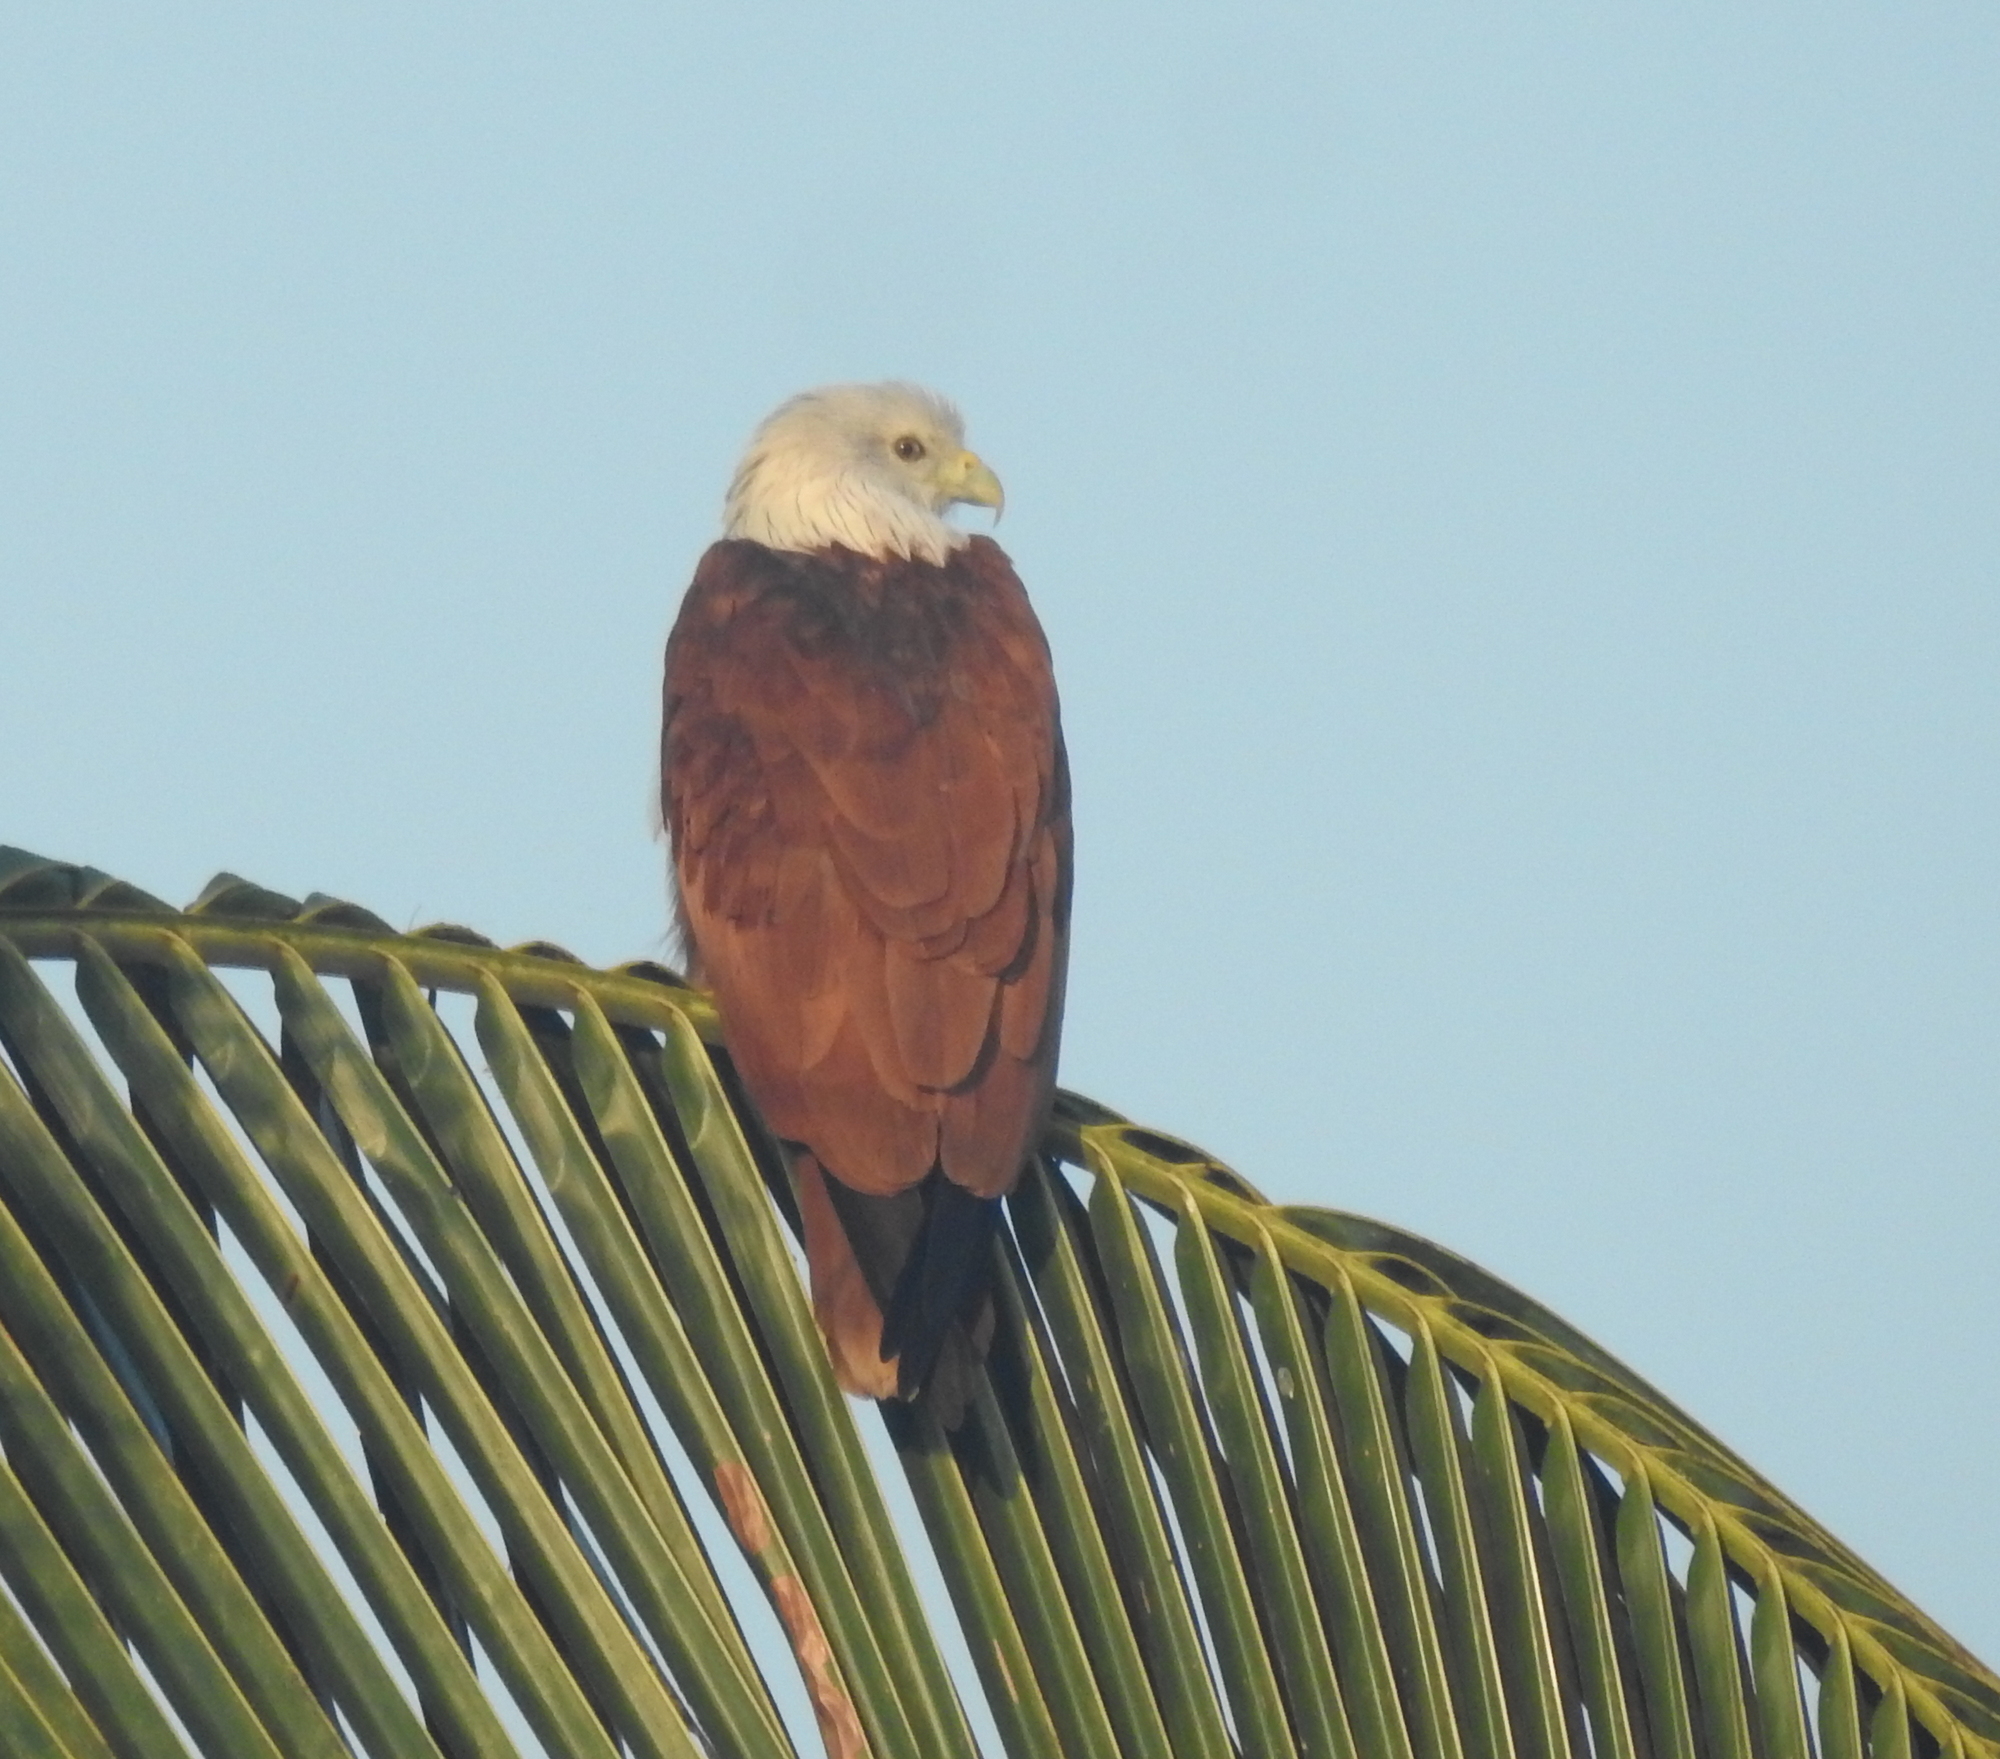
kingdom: Animalia
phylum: Chordata
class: Aves
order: Accipitriformes
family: Accipitridae
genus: Haliastur
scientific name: Haliastur indus
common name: Brahminy kite
